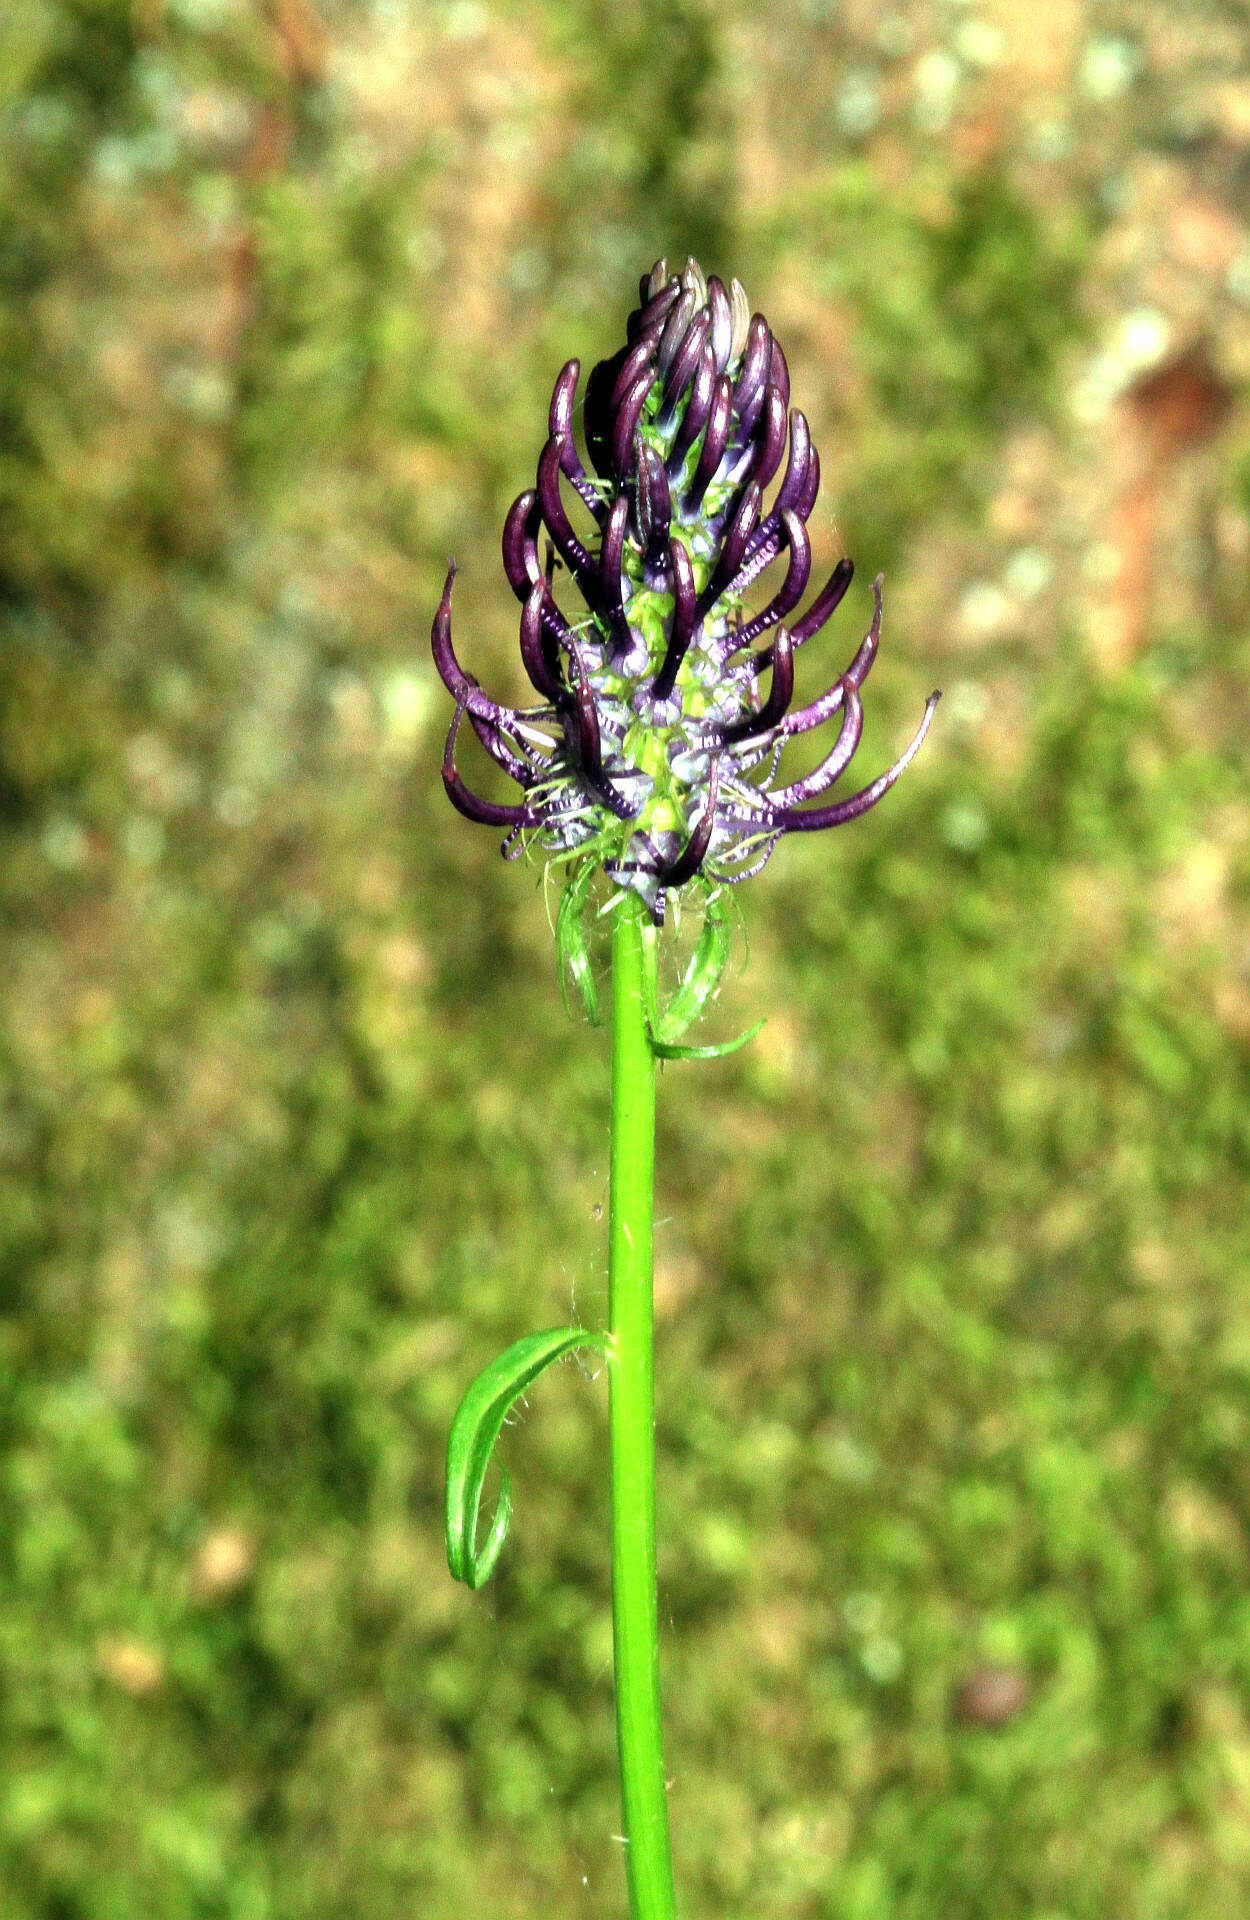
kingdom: Plantae
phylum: Tracheophyta
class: Magnoliopsida
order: Asterales
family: Campanulaceae
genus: Phyteuma
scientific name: Phyteuma nigrum
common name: Black rampion
